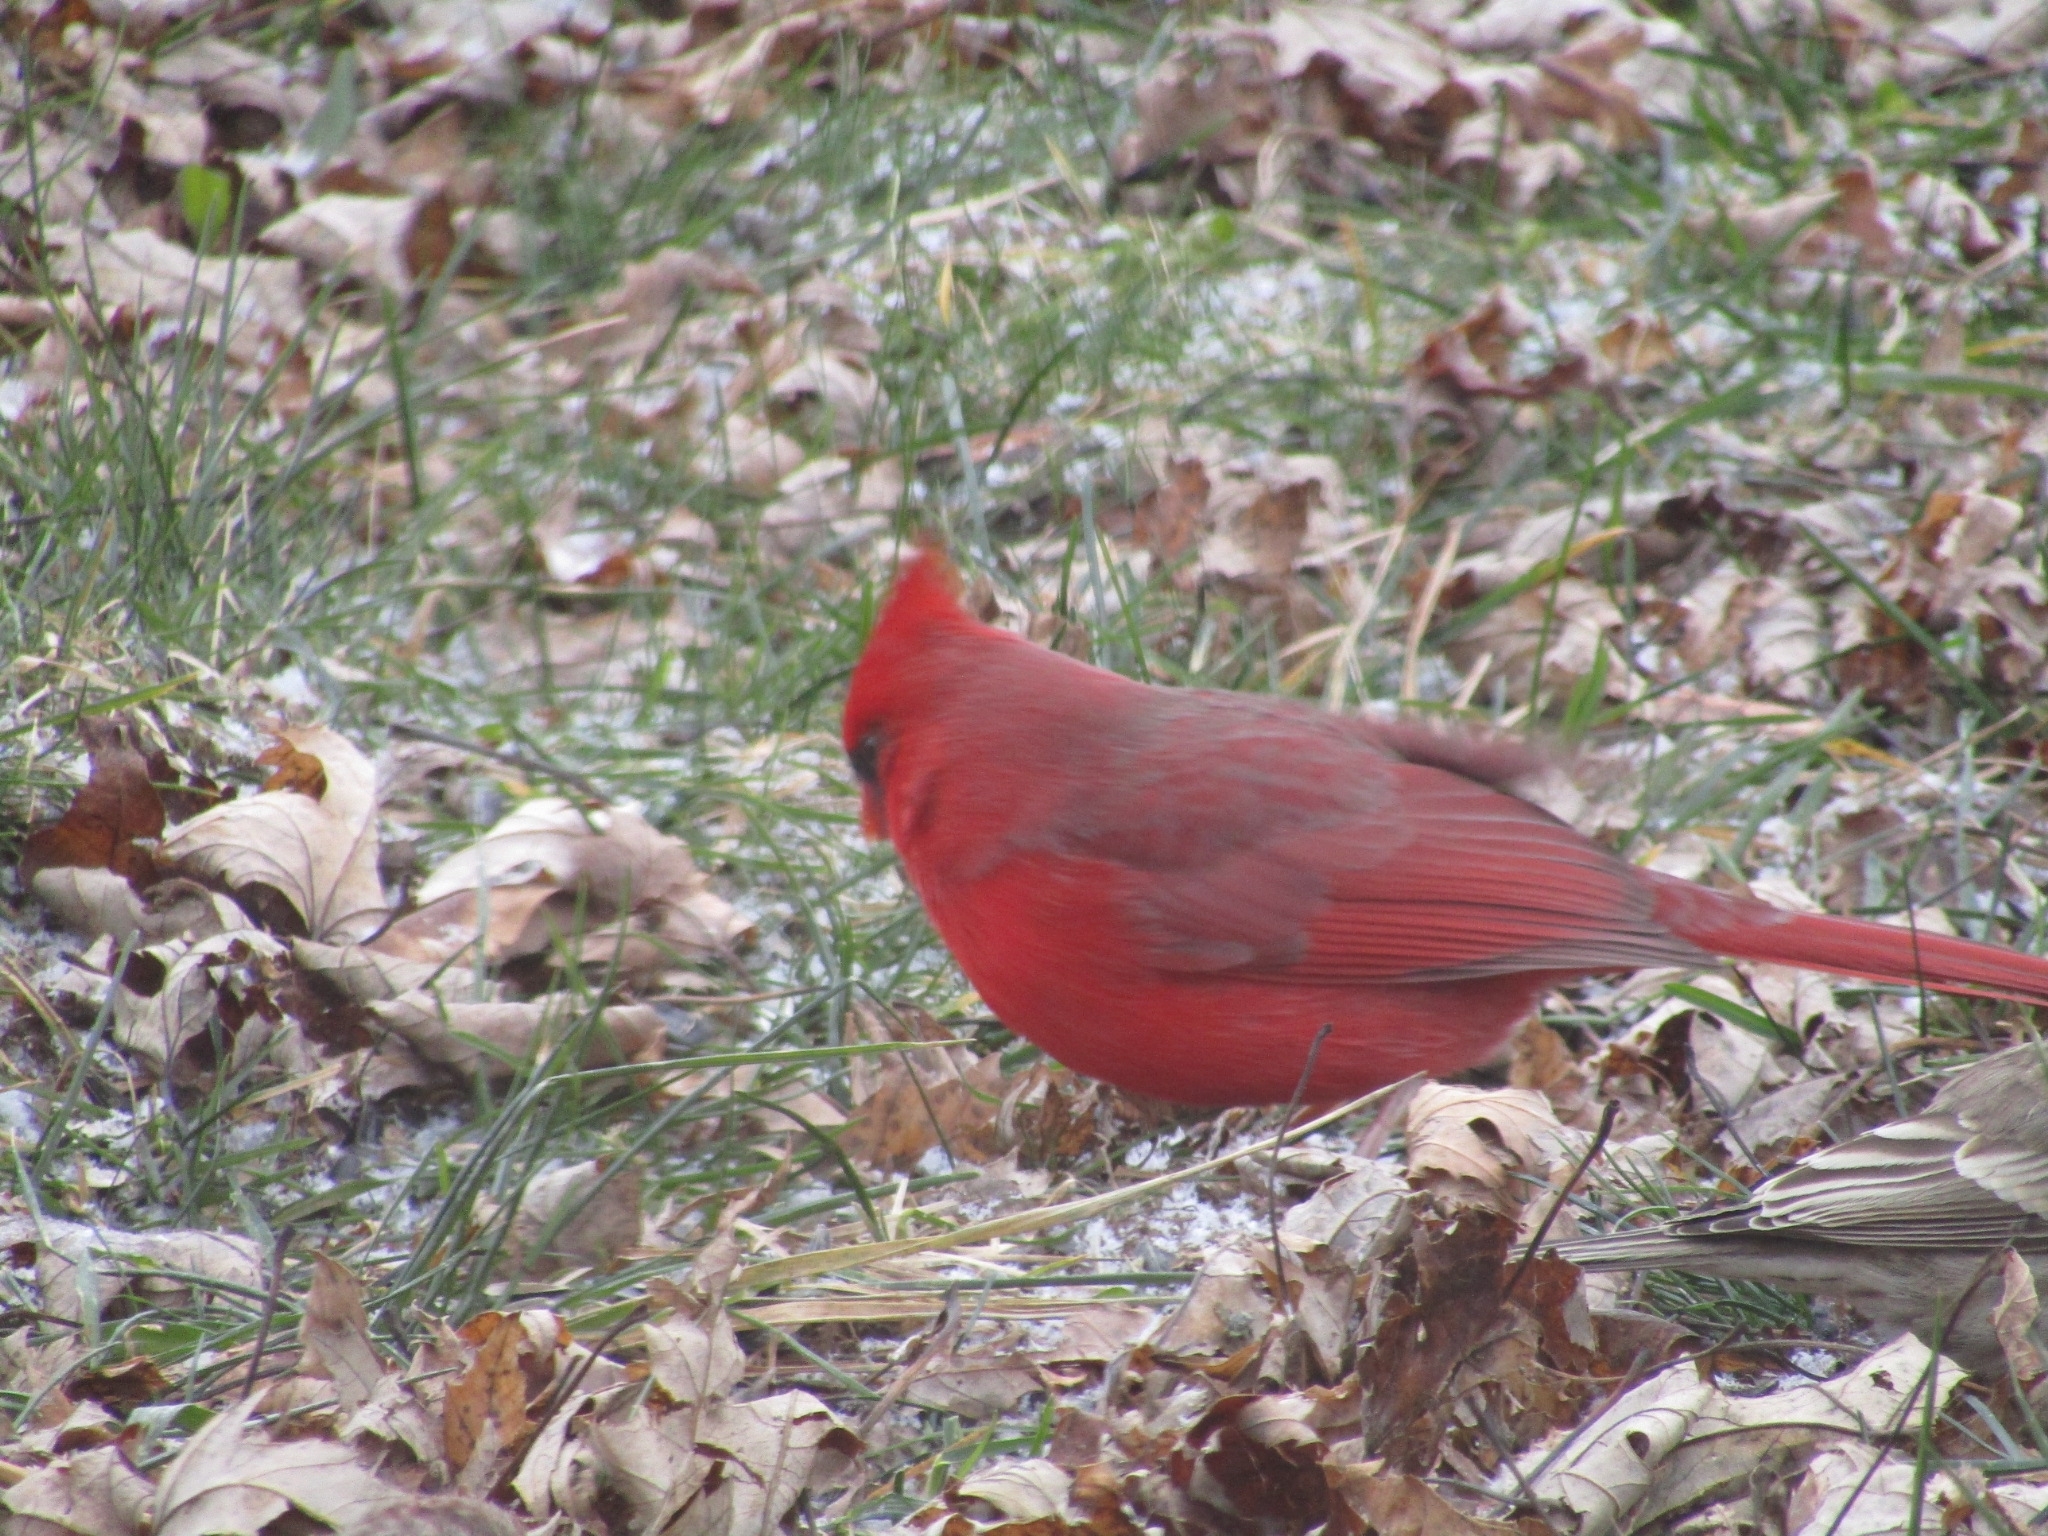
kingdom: Animalia
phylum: Chordata
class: Aves
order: Passeriformes
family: Cardinalidae
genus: Cardinalis
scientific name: Cardinalis cardinalis
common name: Northern cardinal
